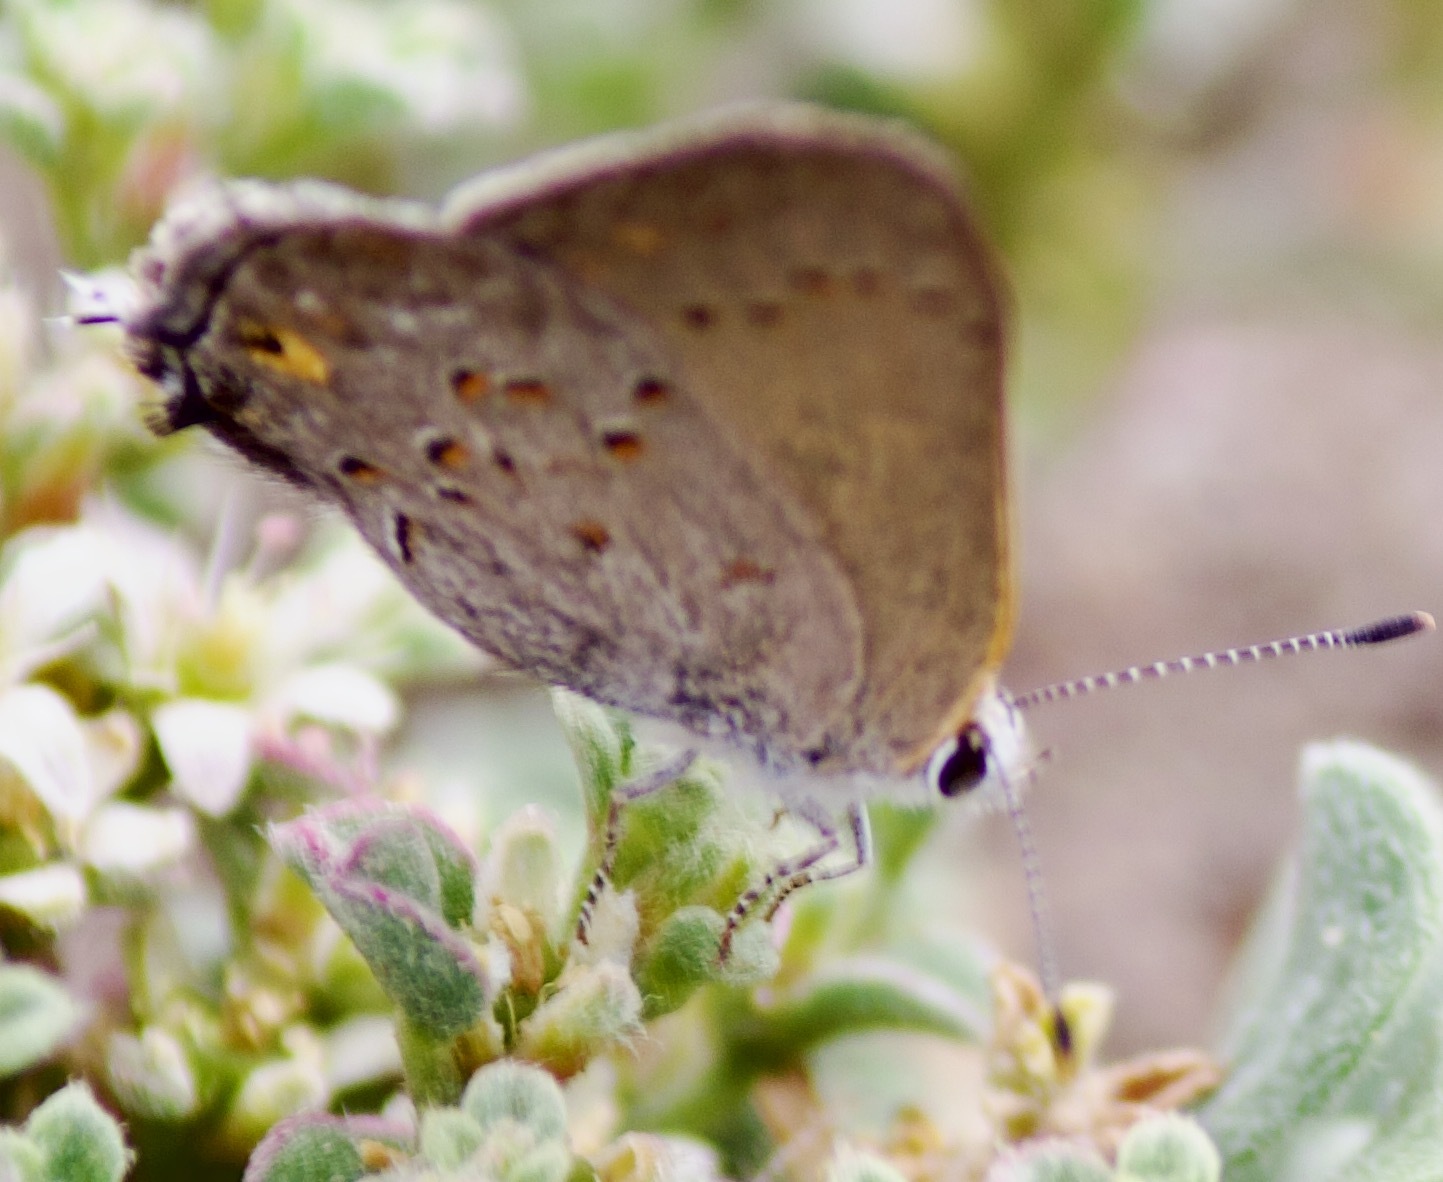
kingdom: Animalia
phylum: Arthropoda
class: Insecta
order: Lepidoptera
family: Lycaenidae
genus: Strymon
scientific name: Strymon eurytulus
